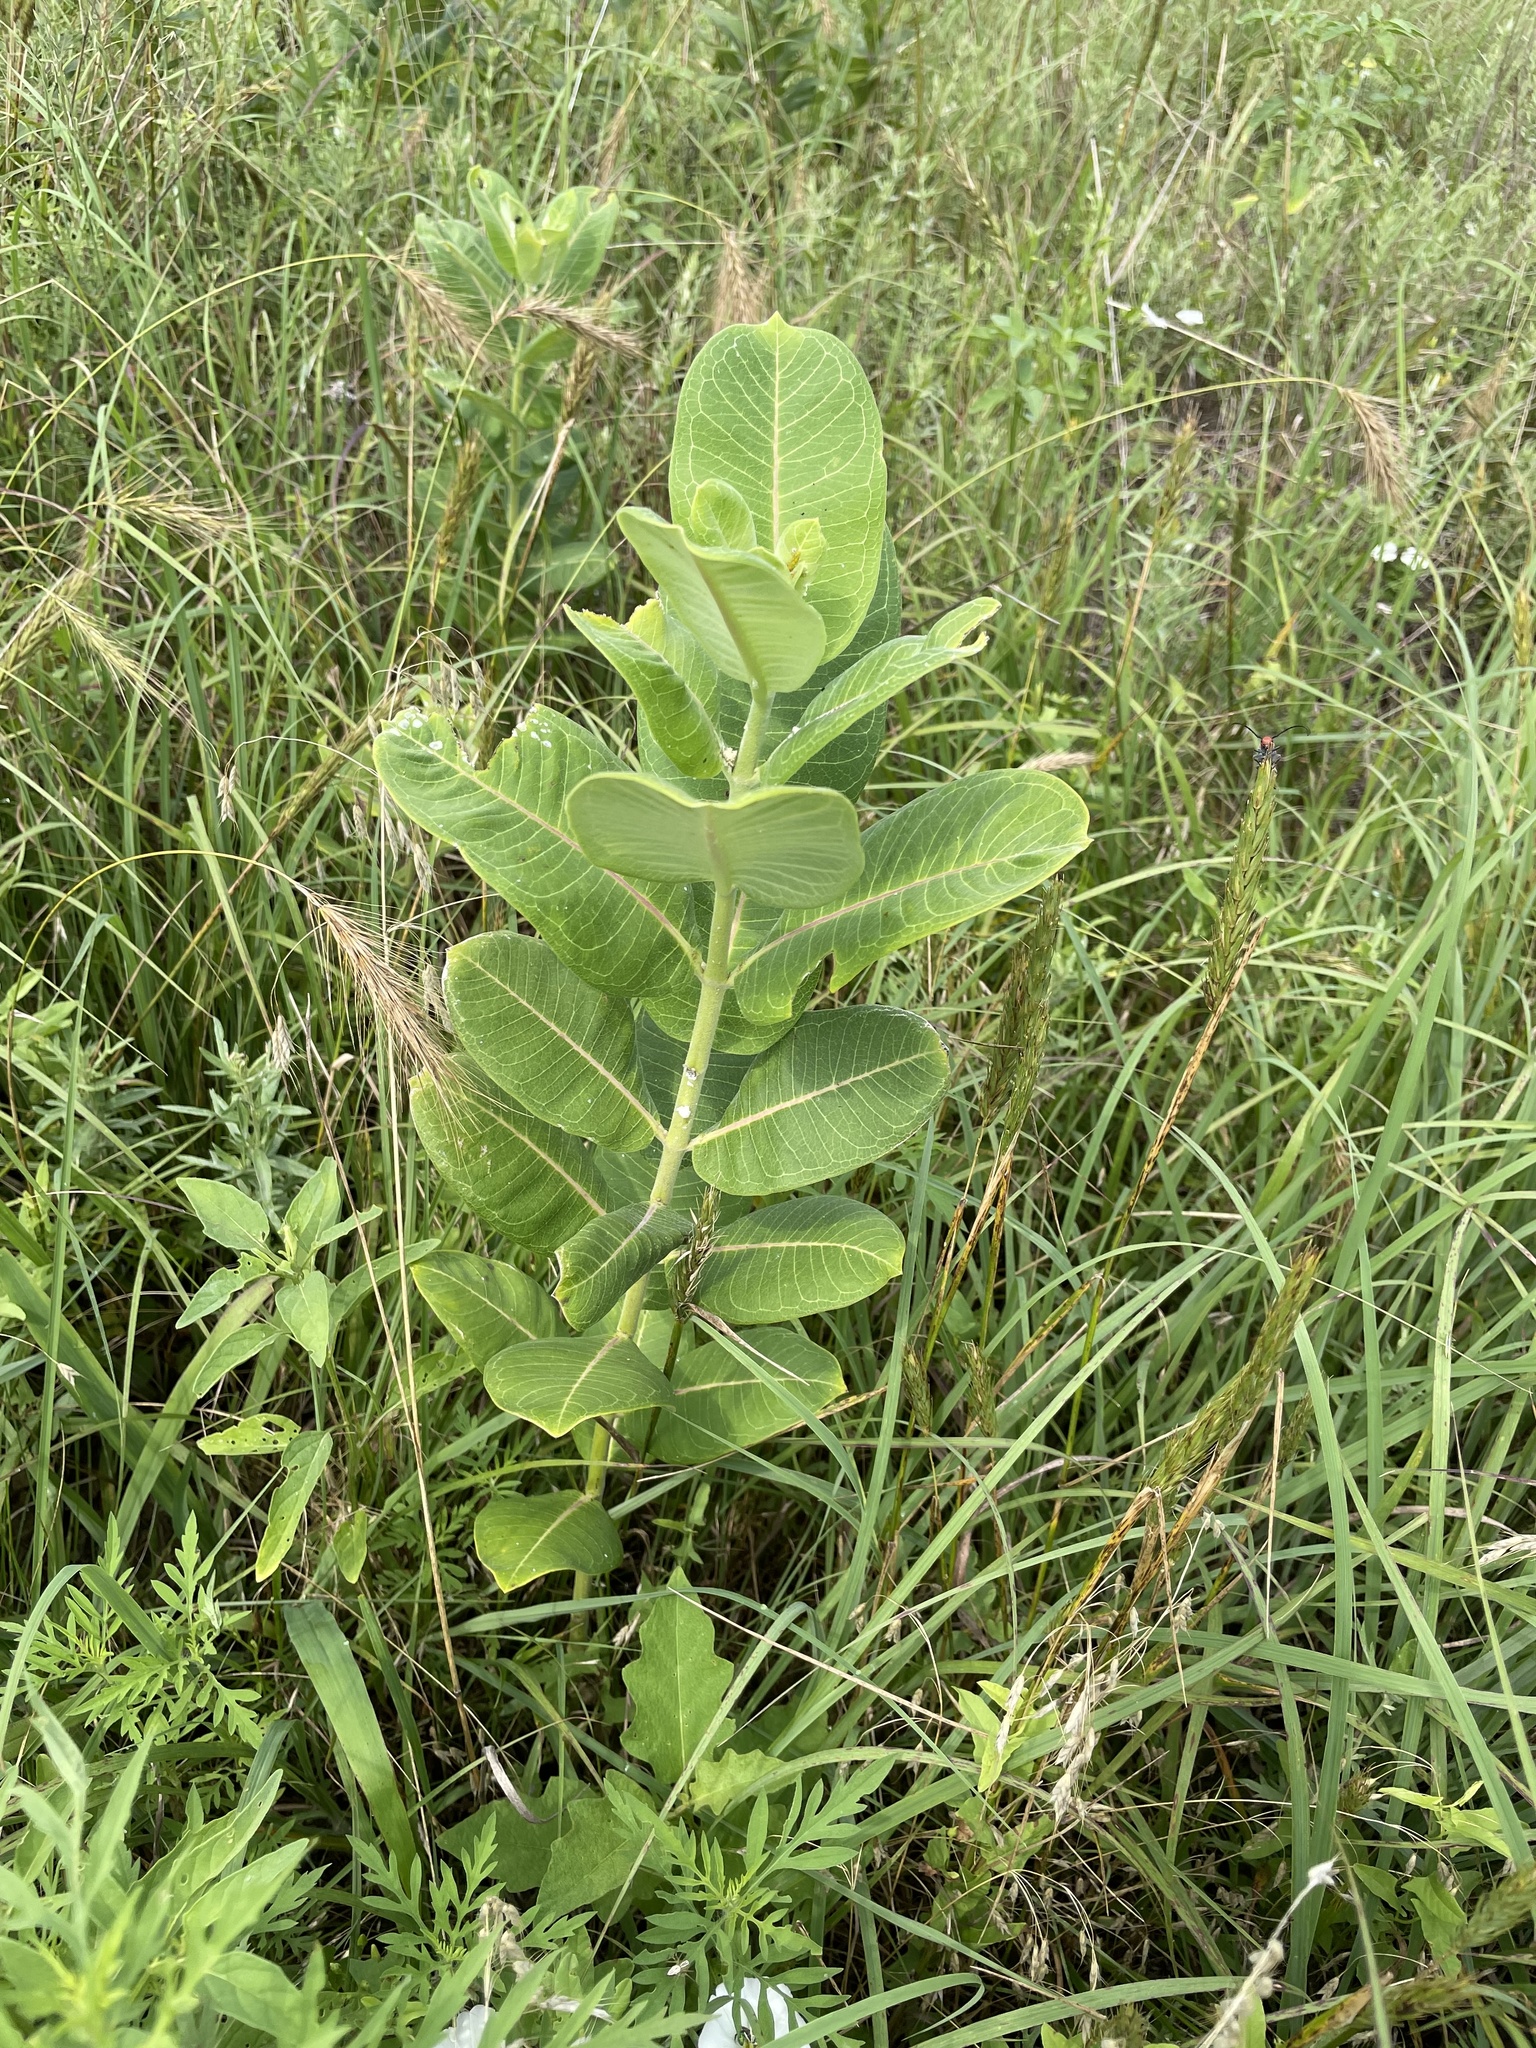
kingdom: Plantae
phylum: Tracheophyta
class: Magnoliopsida
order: Gentianales
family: Apocynaceae
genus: Asclepias
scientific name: Asclepias syriaca
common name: Common milkweed
